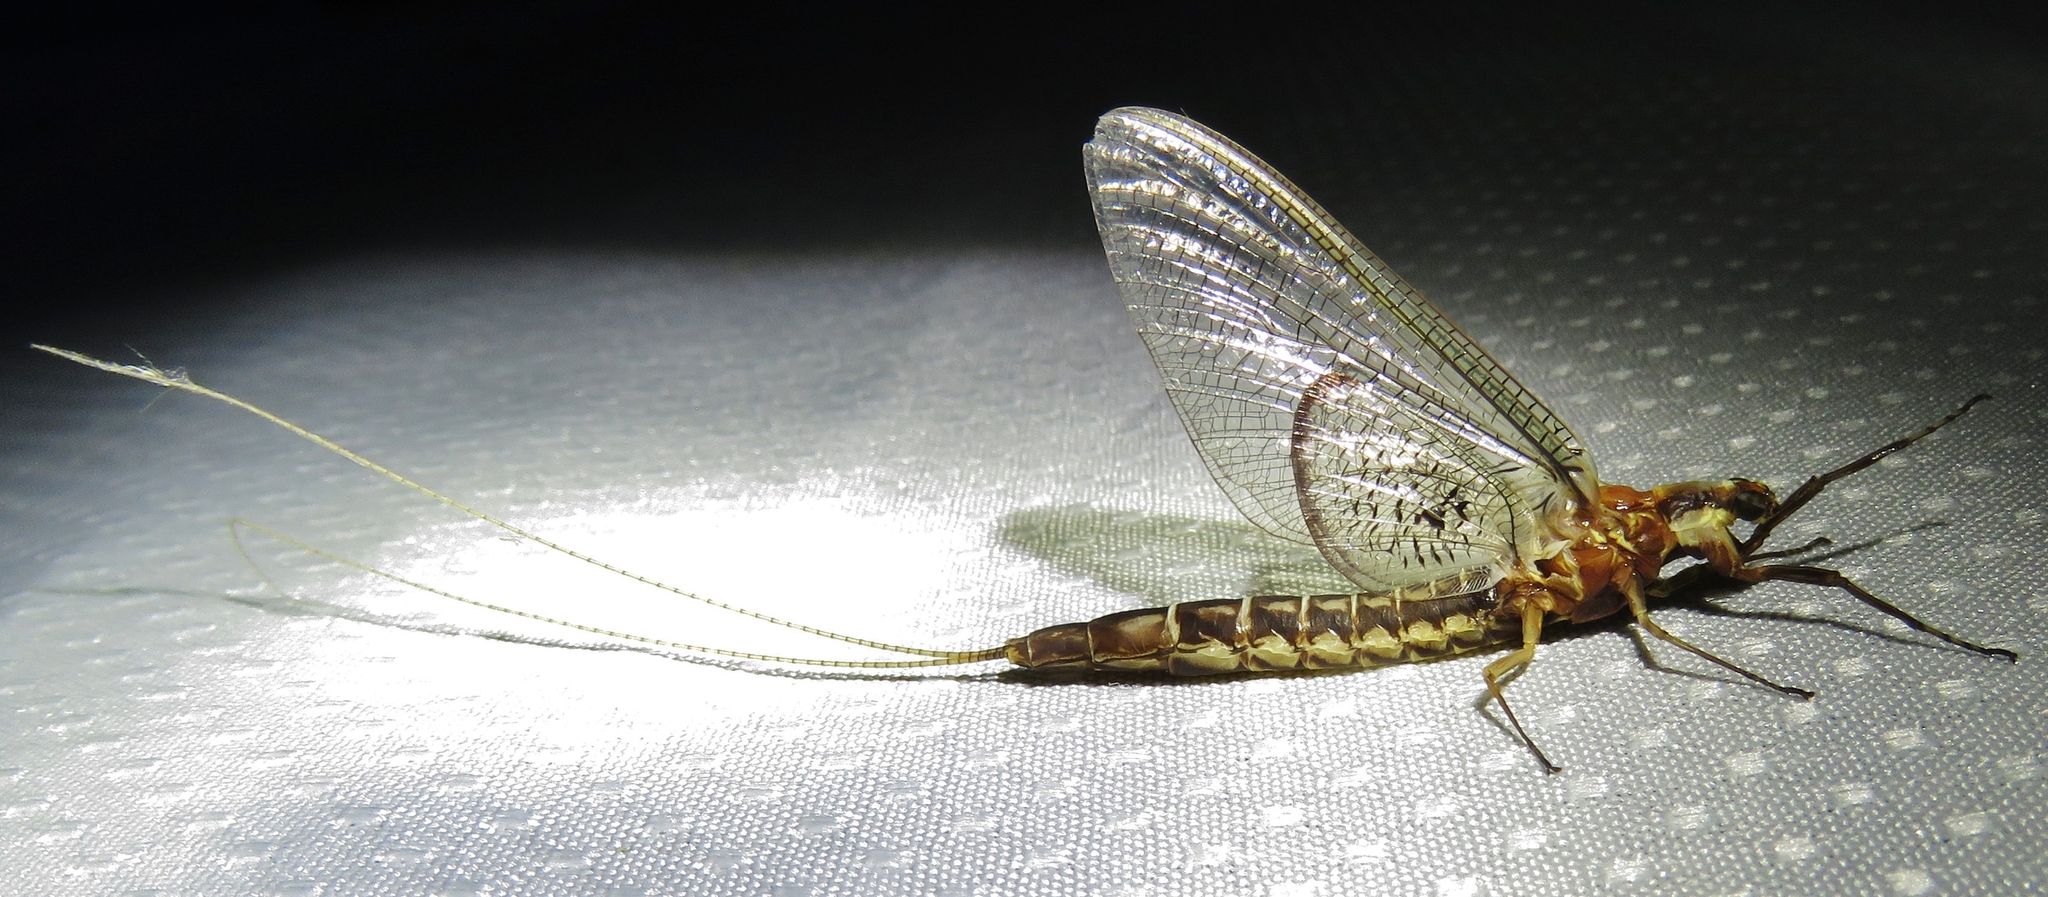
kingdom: Animalia
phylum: Arthropoda
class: Insecta
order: Ephemeroptera
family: Ephemeridae
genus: Hexagenia
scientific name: Hexagenia limbata
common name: Giant mayfly
